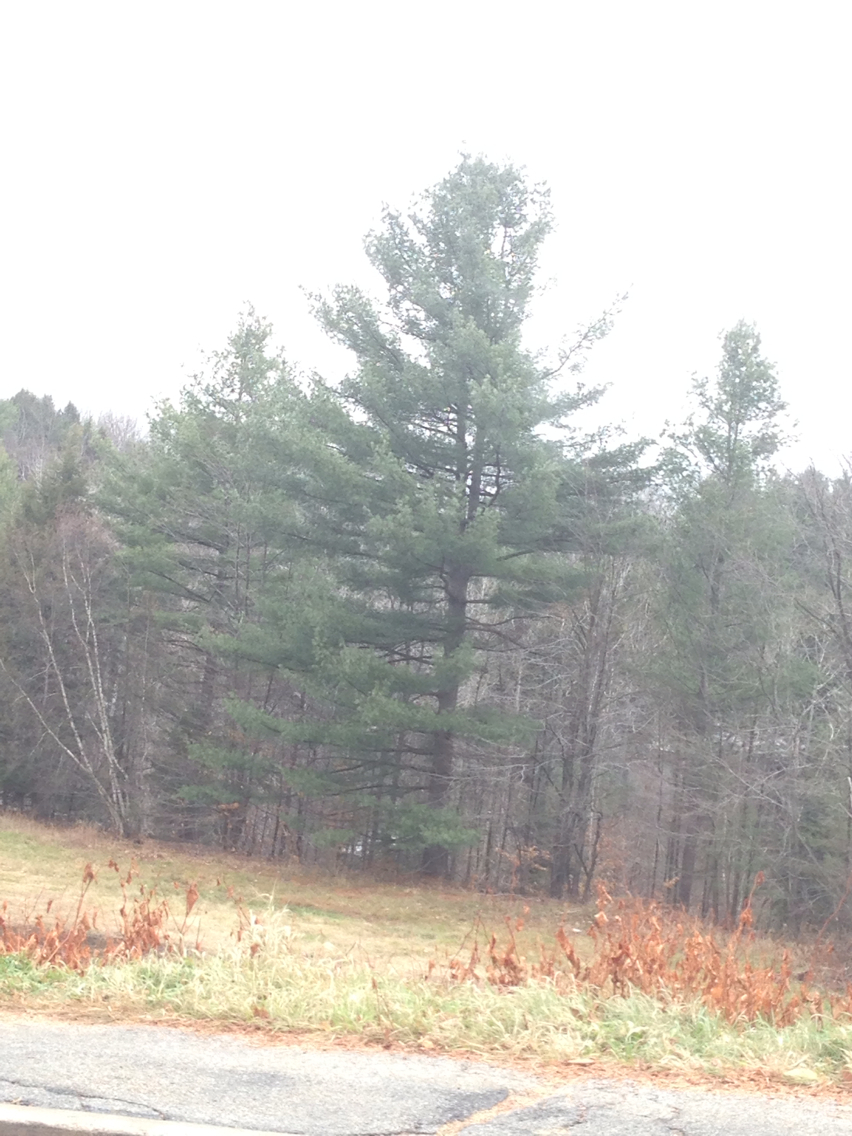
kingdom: Plantae
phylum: Tracheophyta
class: Pinopsida
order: Pinales
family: Pinaceae
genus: Pinus
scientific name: Pinus strobus
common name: Weymouth pine
